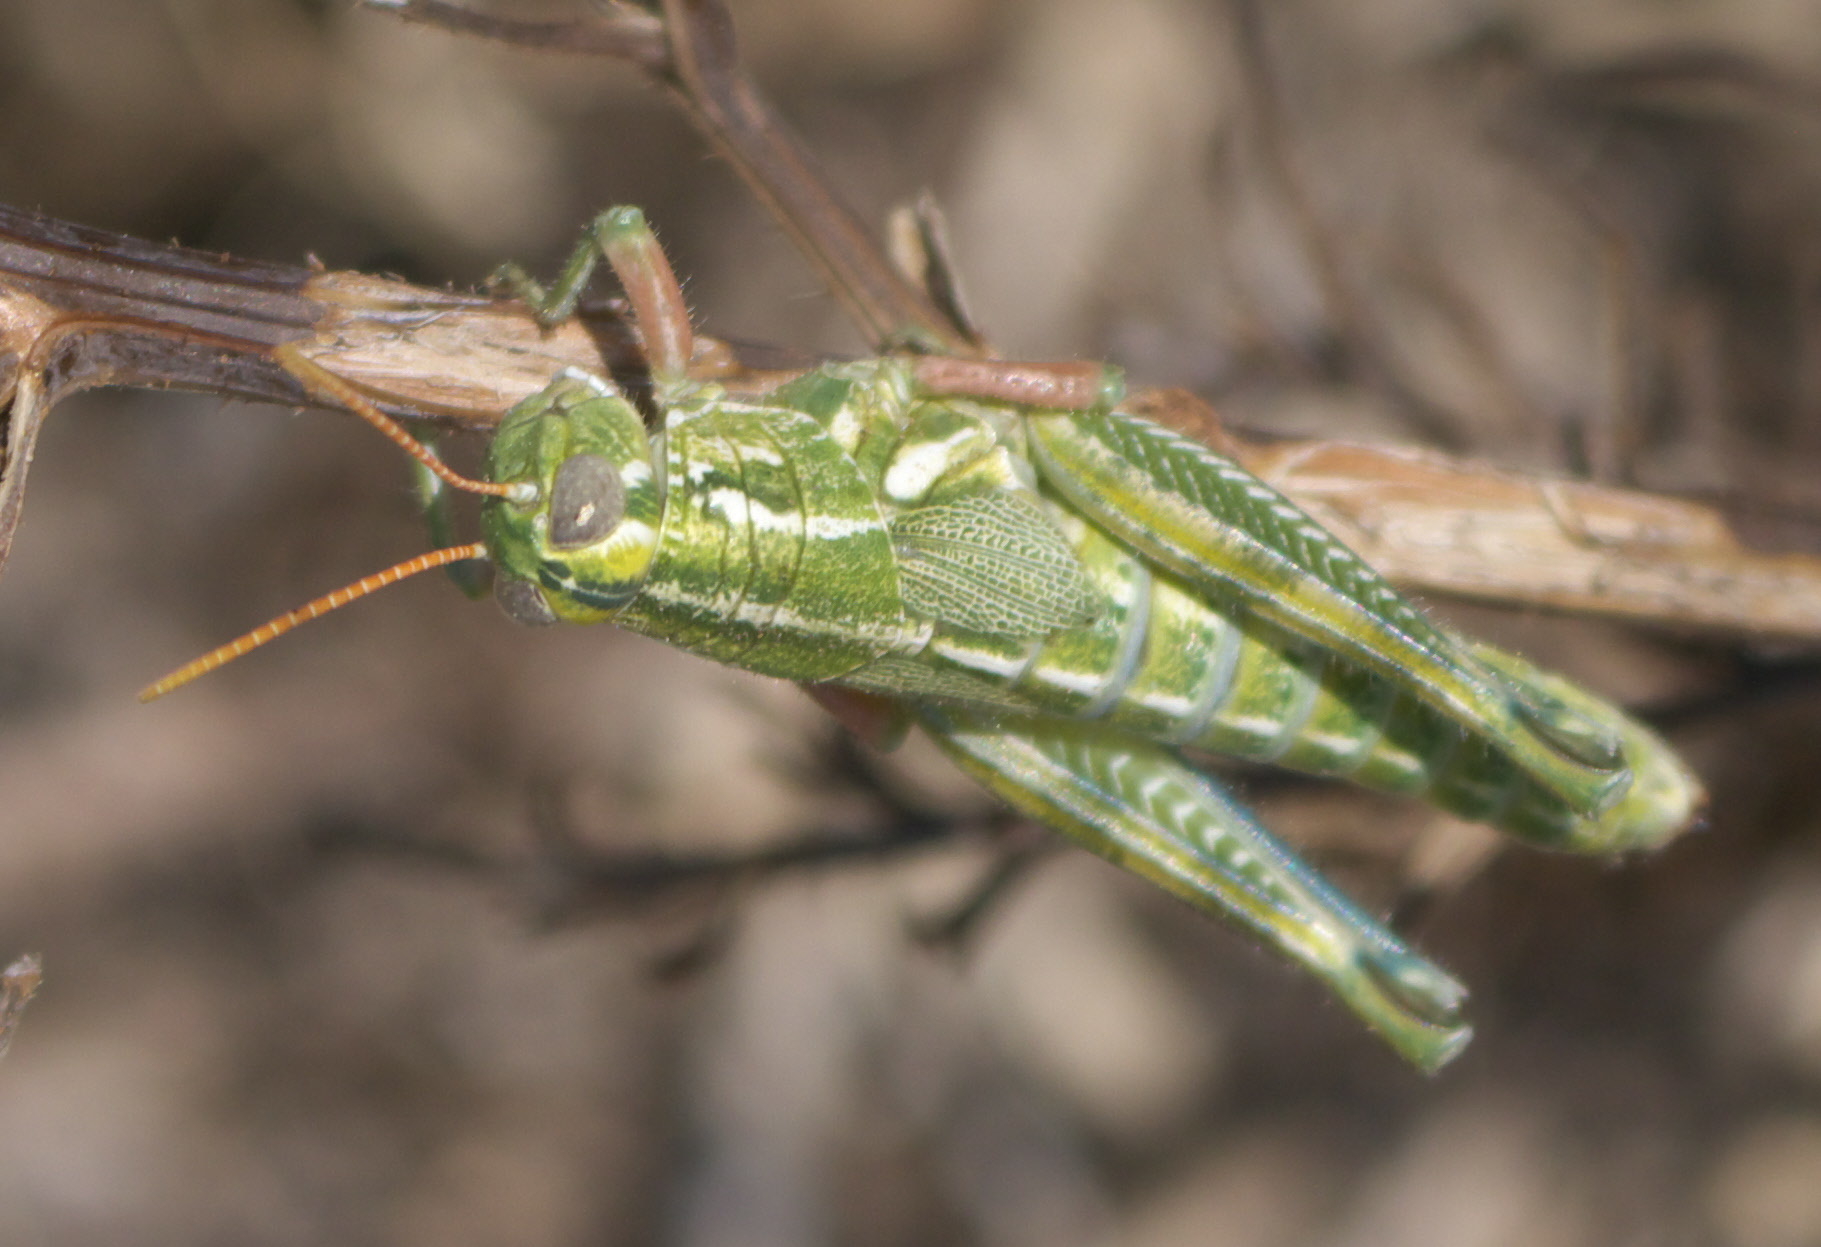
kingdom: Animalia
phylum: Arthropoda
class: Insecta
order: Orthoptera
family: Acrididae
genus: Campylacantha
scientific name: Campylacantha olivacea
